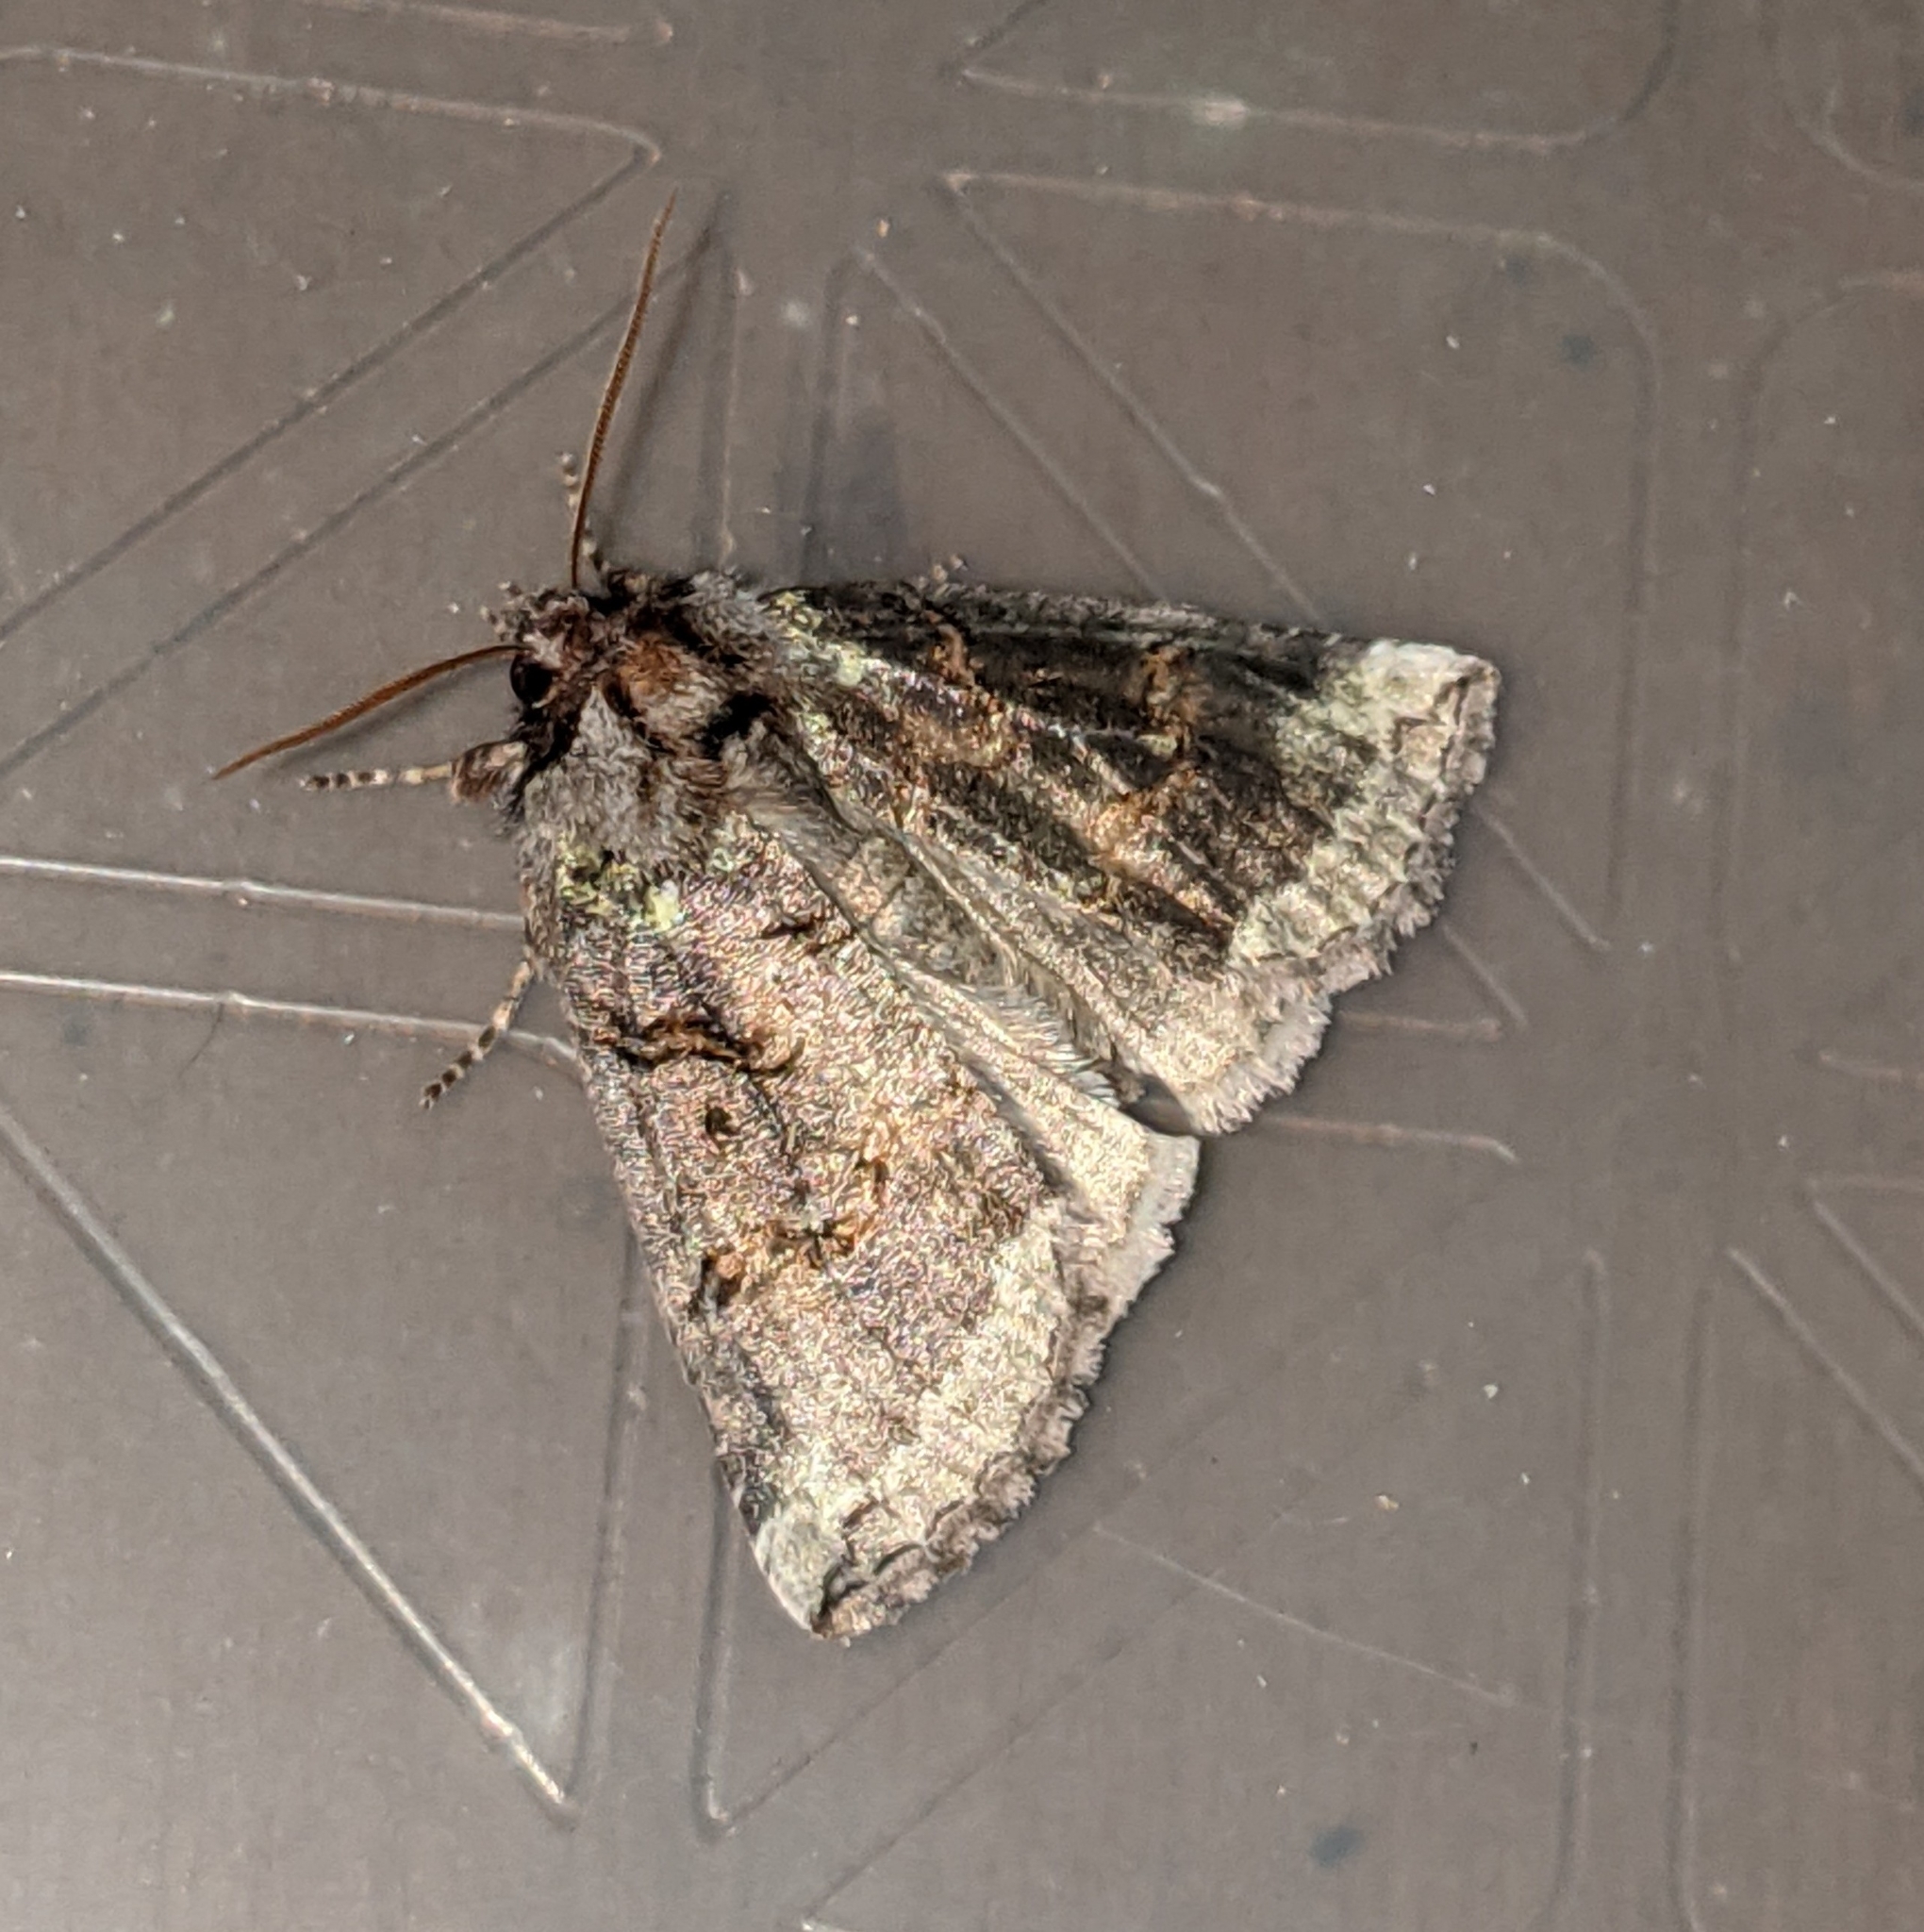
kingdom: Animalia
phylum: Arthropoda
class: Insecta
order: Lepidoptera
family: Drepanidae
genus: Ceranemota
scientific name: Ceranemota improvisa
